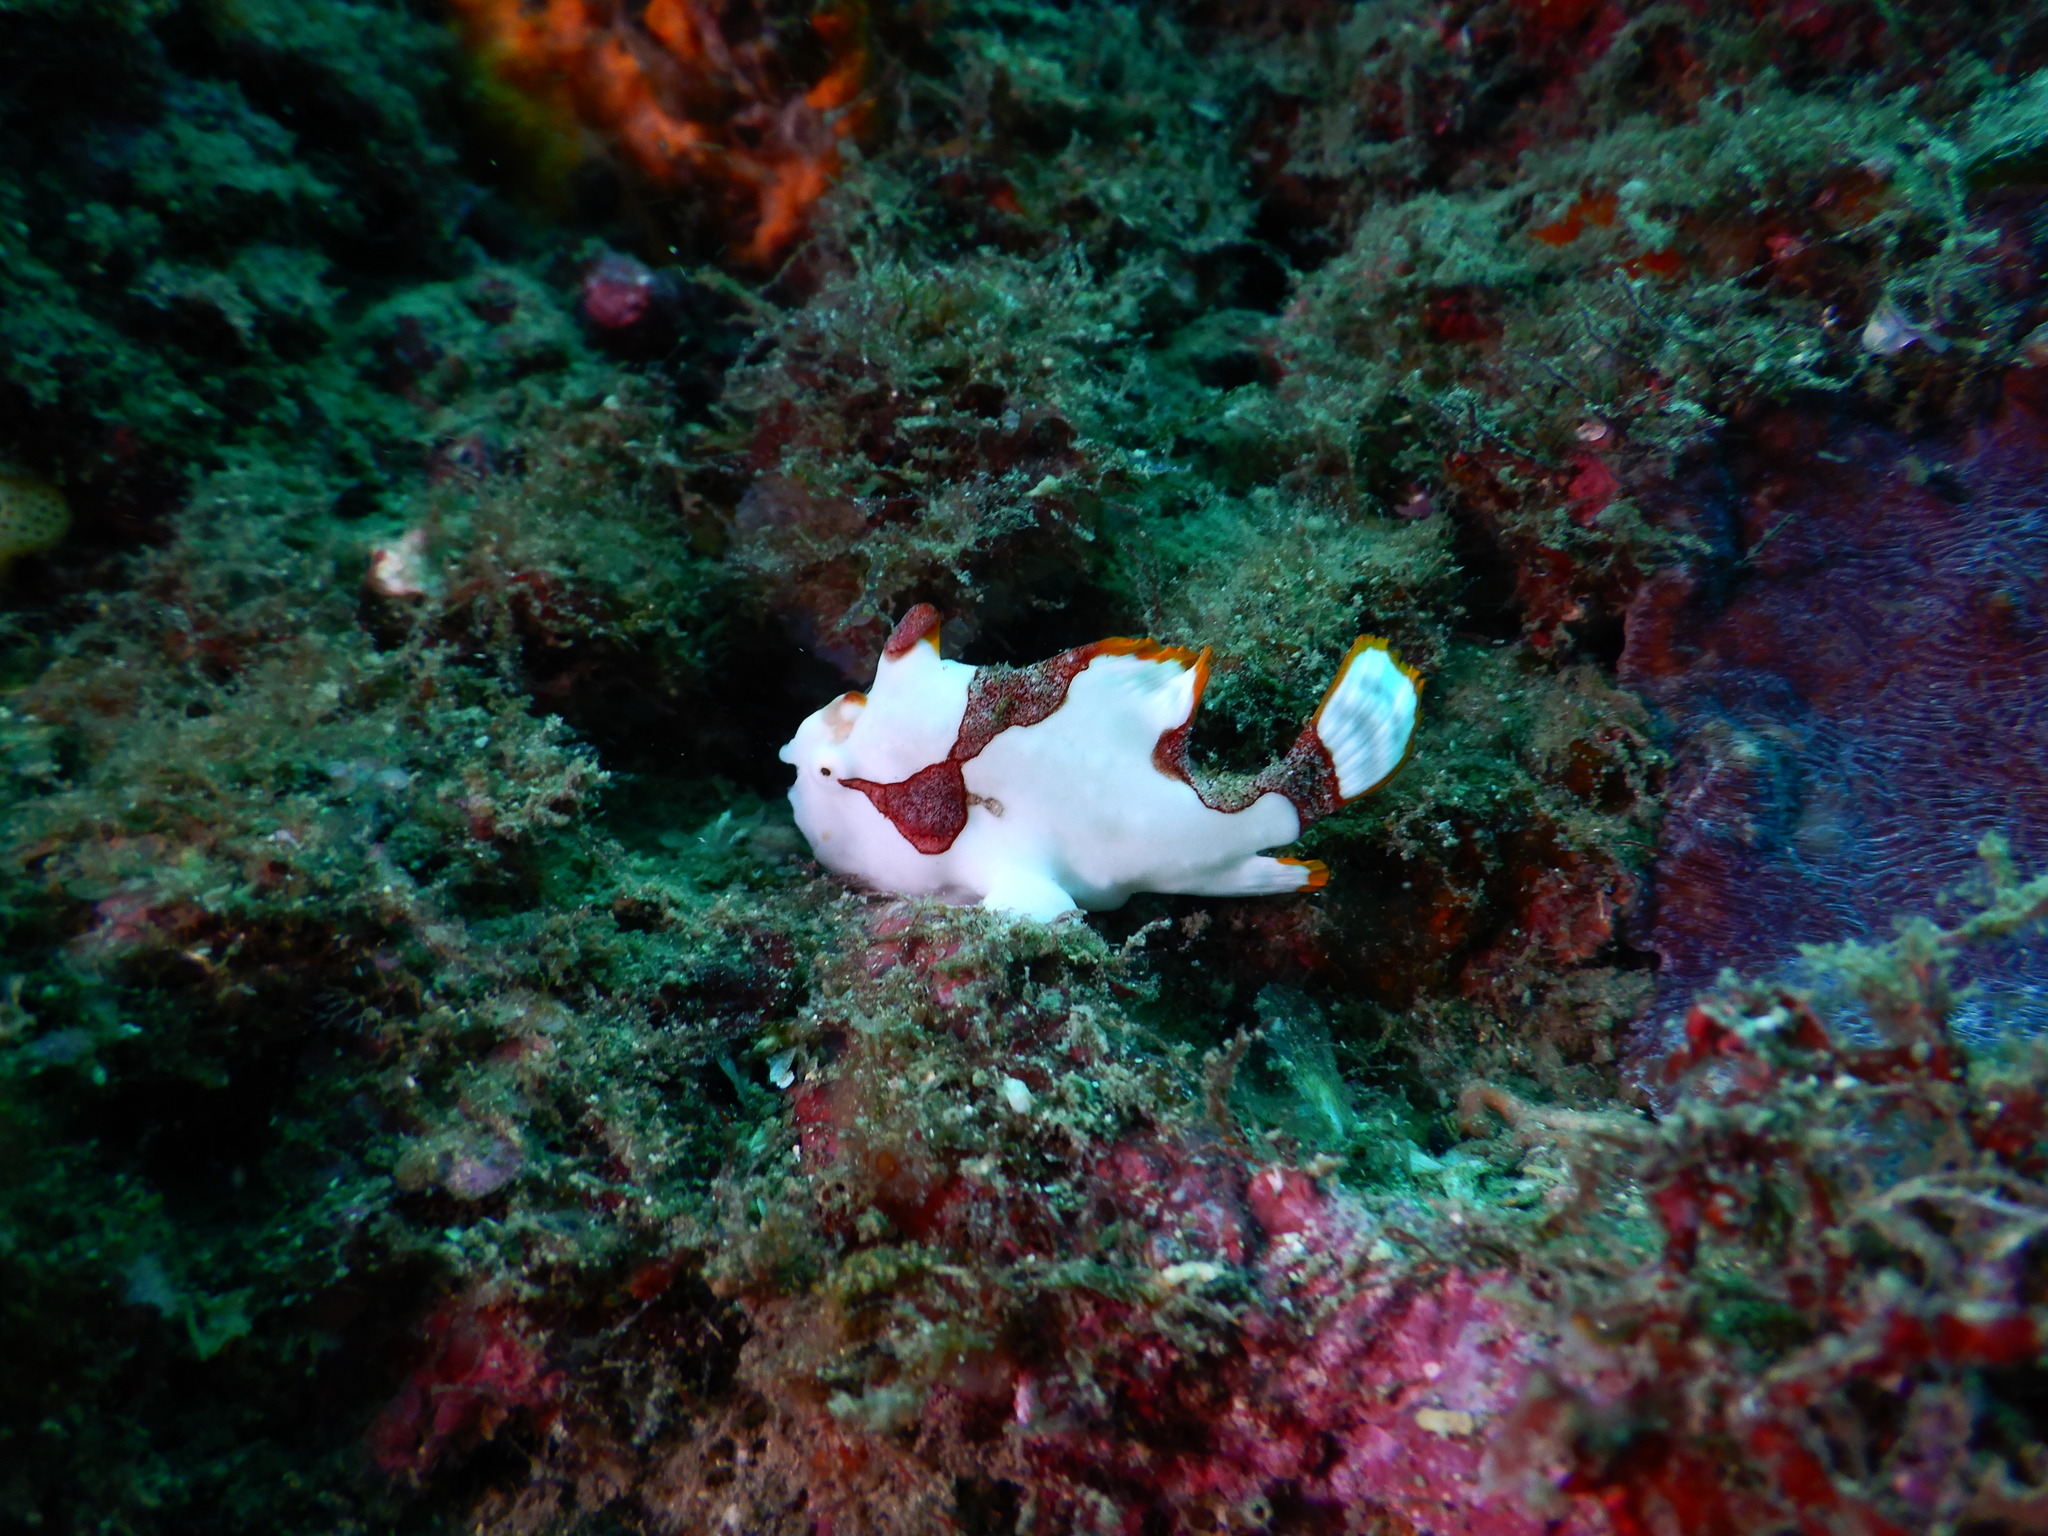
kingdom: Animalia
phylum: Chordata
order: Lophiiformes
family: Antennariidae
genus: Antennarius
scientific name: Antennarius maculatus
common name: Warty frogfish
